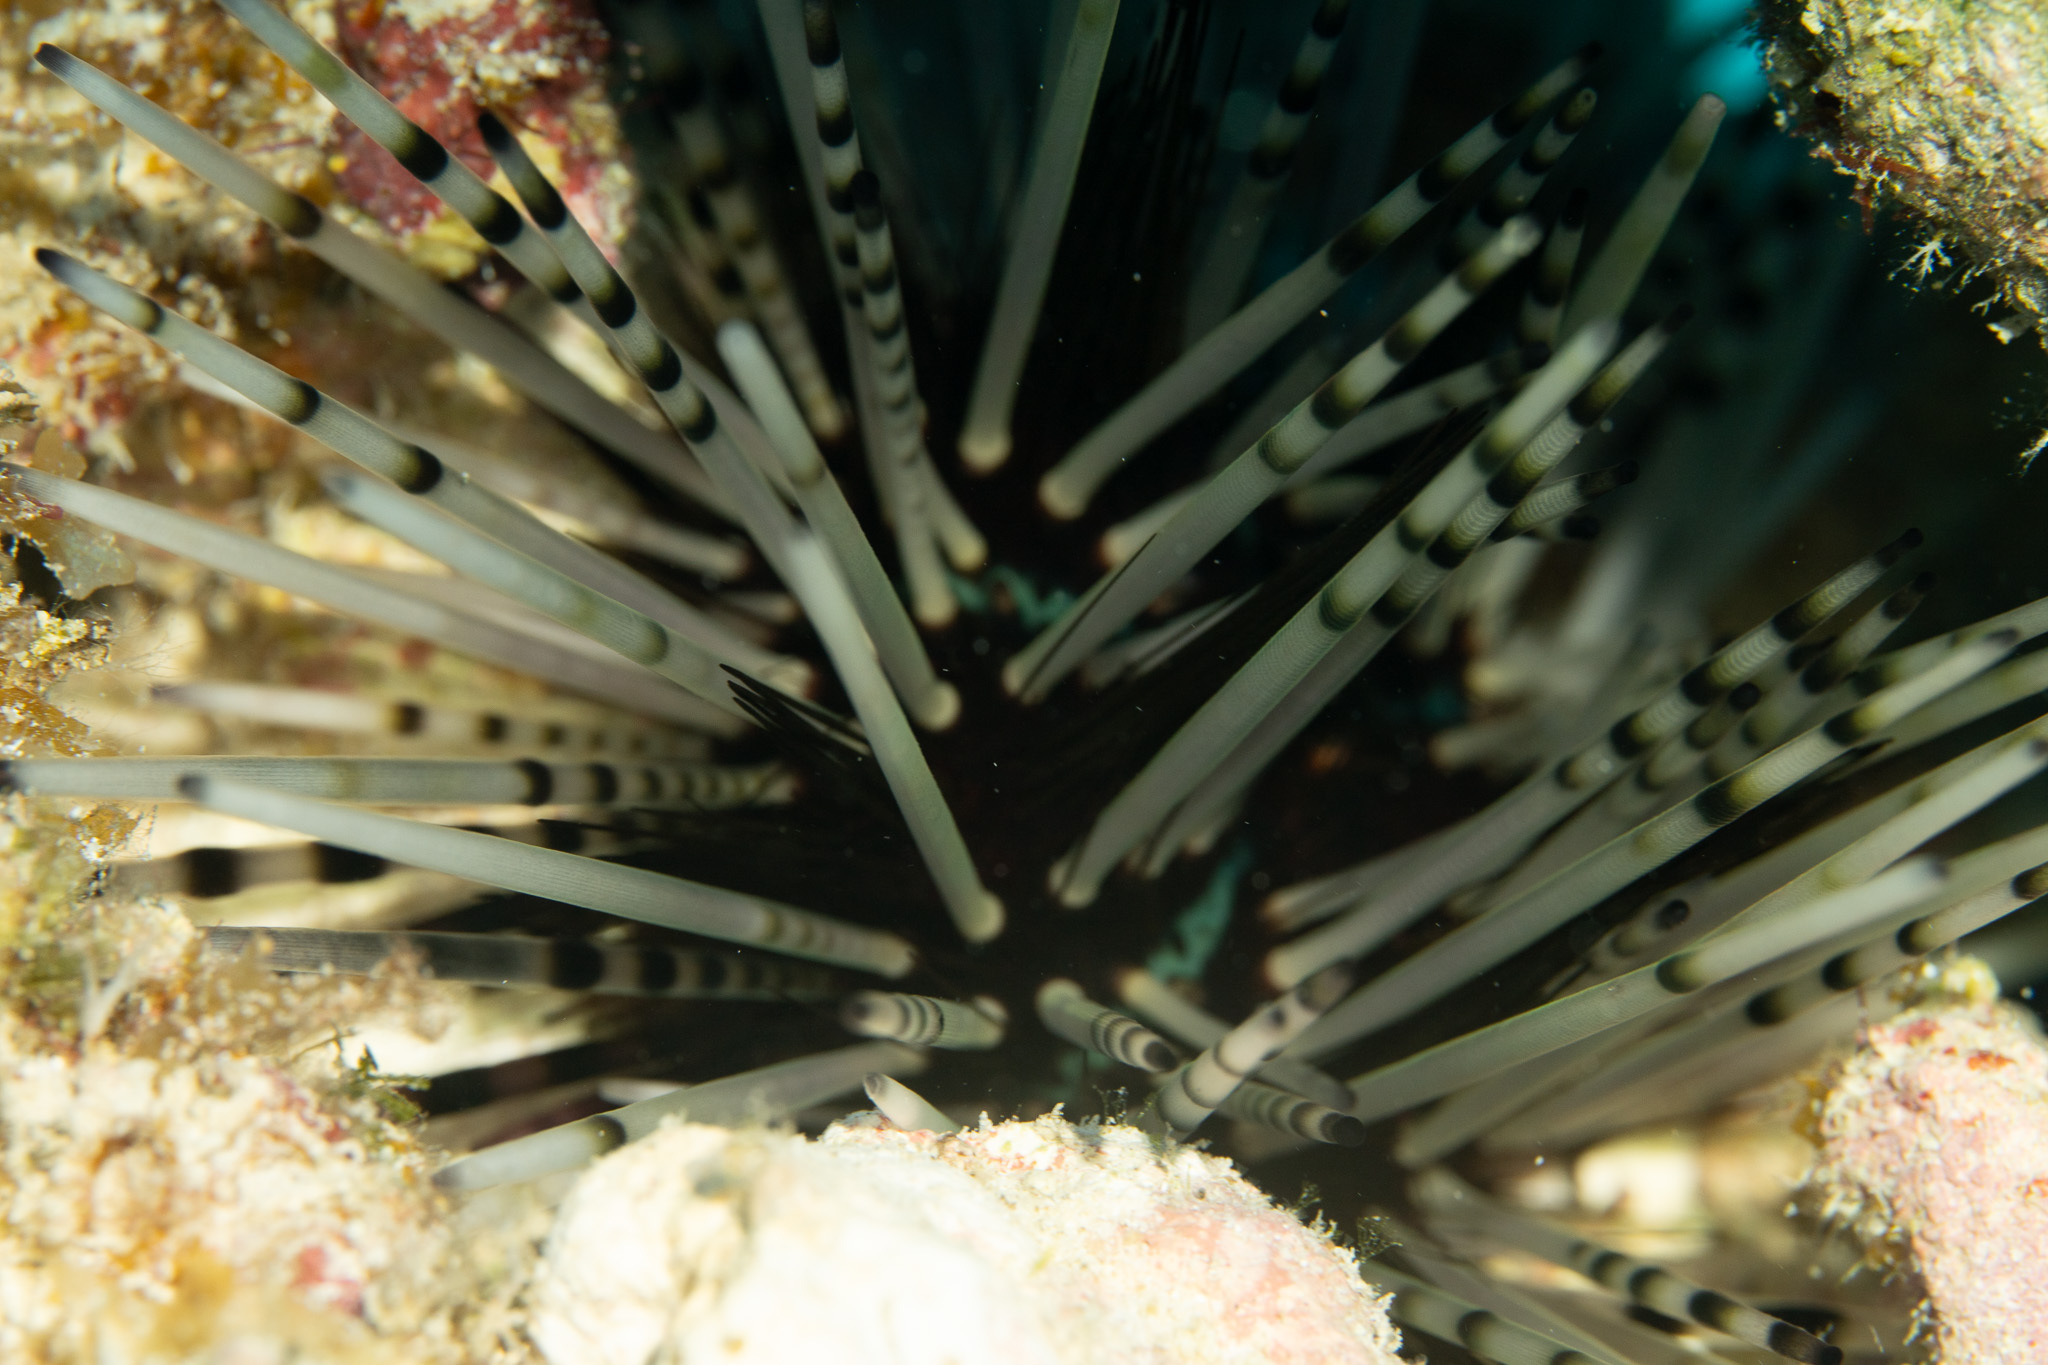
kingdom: Animalia
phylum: Echinodermata
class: Echinoidea
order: Diadematoida
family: Diadematidae
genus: Echinothrix
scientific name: Echinothrix calamaris
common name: Banded sea urchin
